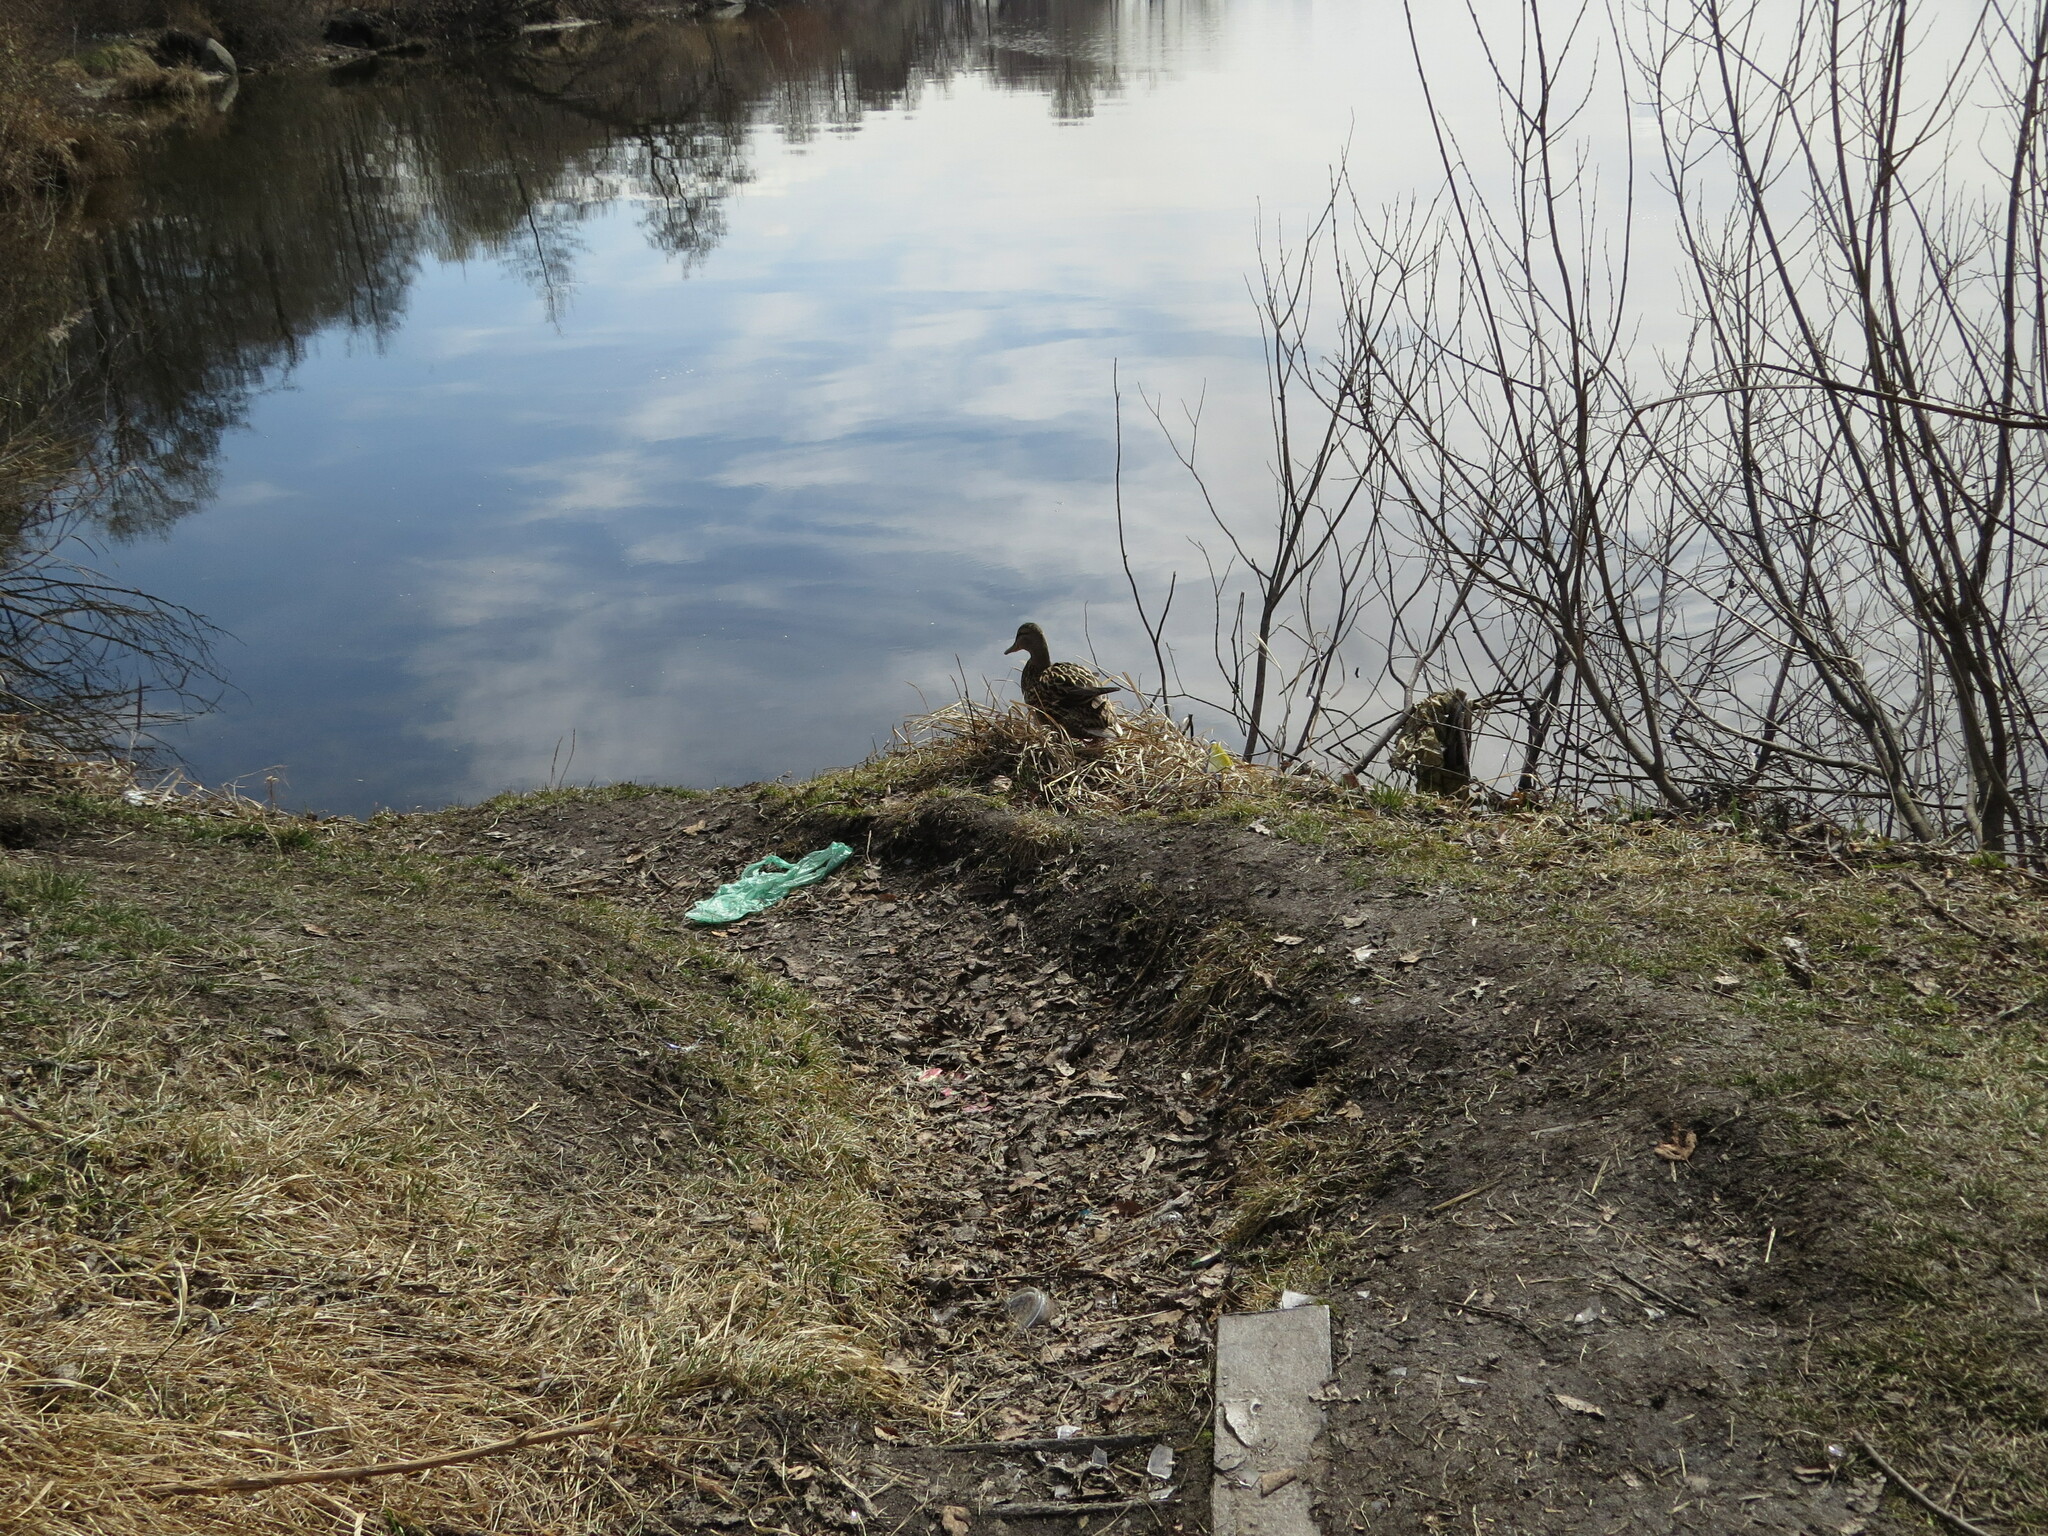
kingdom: Animalia
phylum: Chordata
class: Aves
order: Anseriformes
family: Anatidae
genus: Anas
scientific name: Anas platyrhynchos
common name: Mallard
